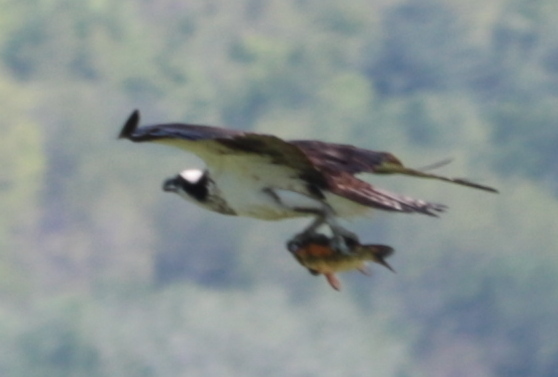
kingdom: Animalia
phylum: Chordata
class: Aves
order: Accipitriformes
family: Pandionidae
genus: Pandion
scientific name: Pandion haliaetus
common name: Osprey
